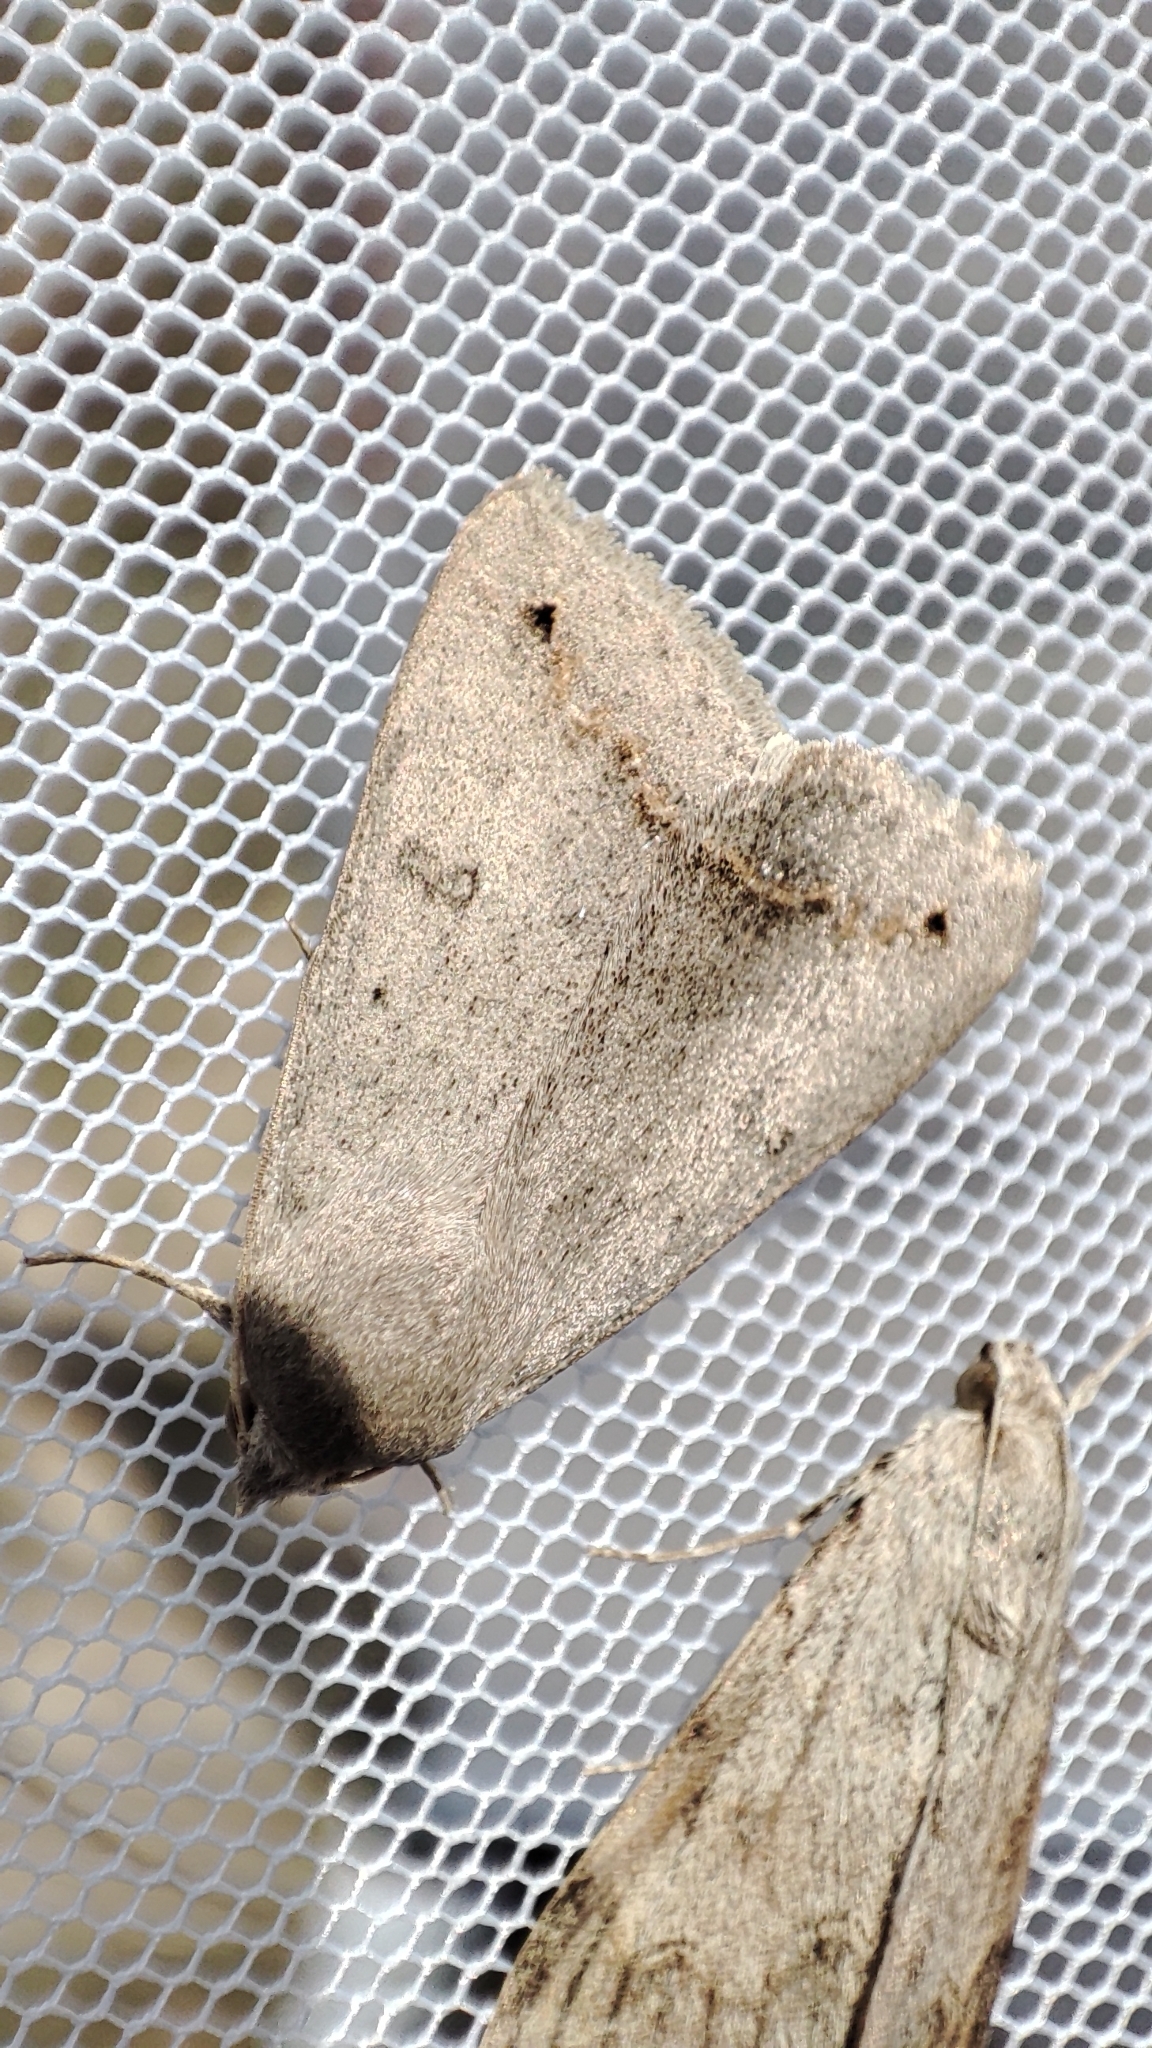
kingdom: Animalia
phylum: Arthropoda
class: Insecta
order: Lepidoptera
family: Erebidae
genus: Clytie
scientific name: Clytie gracilis
